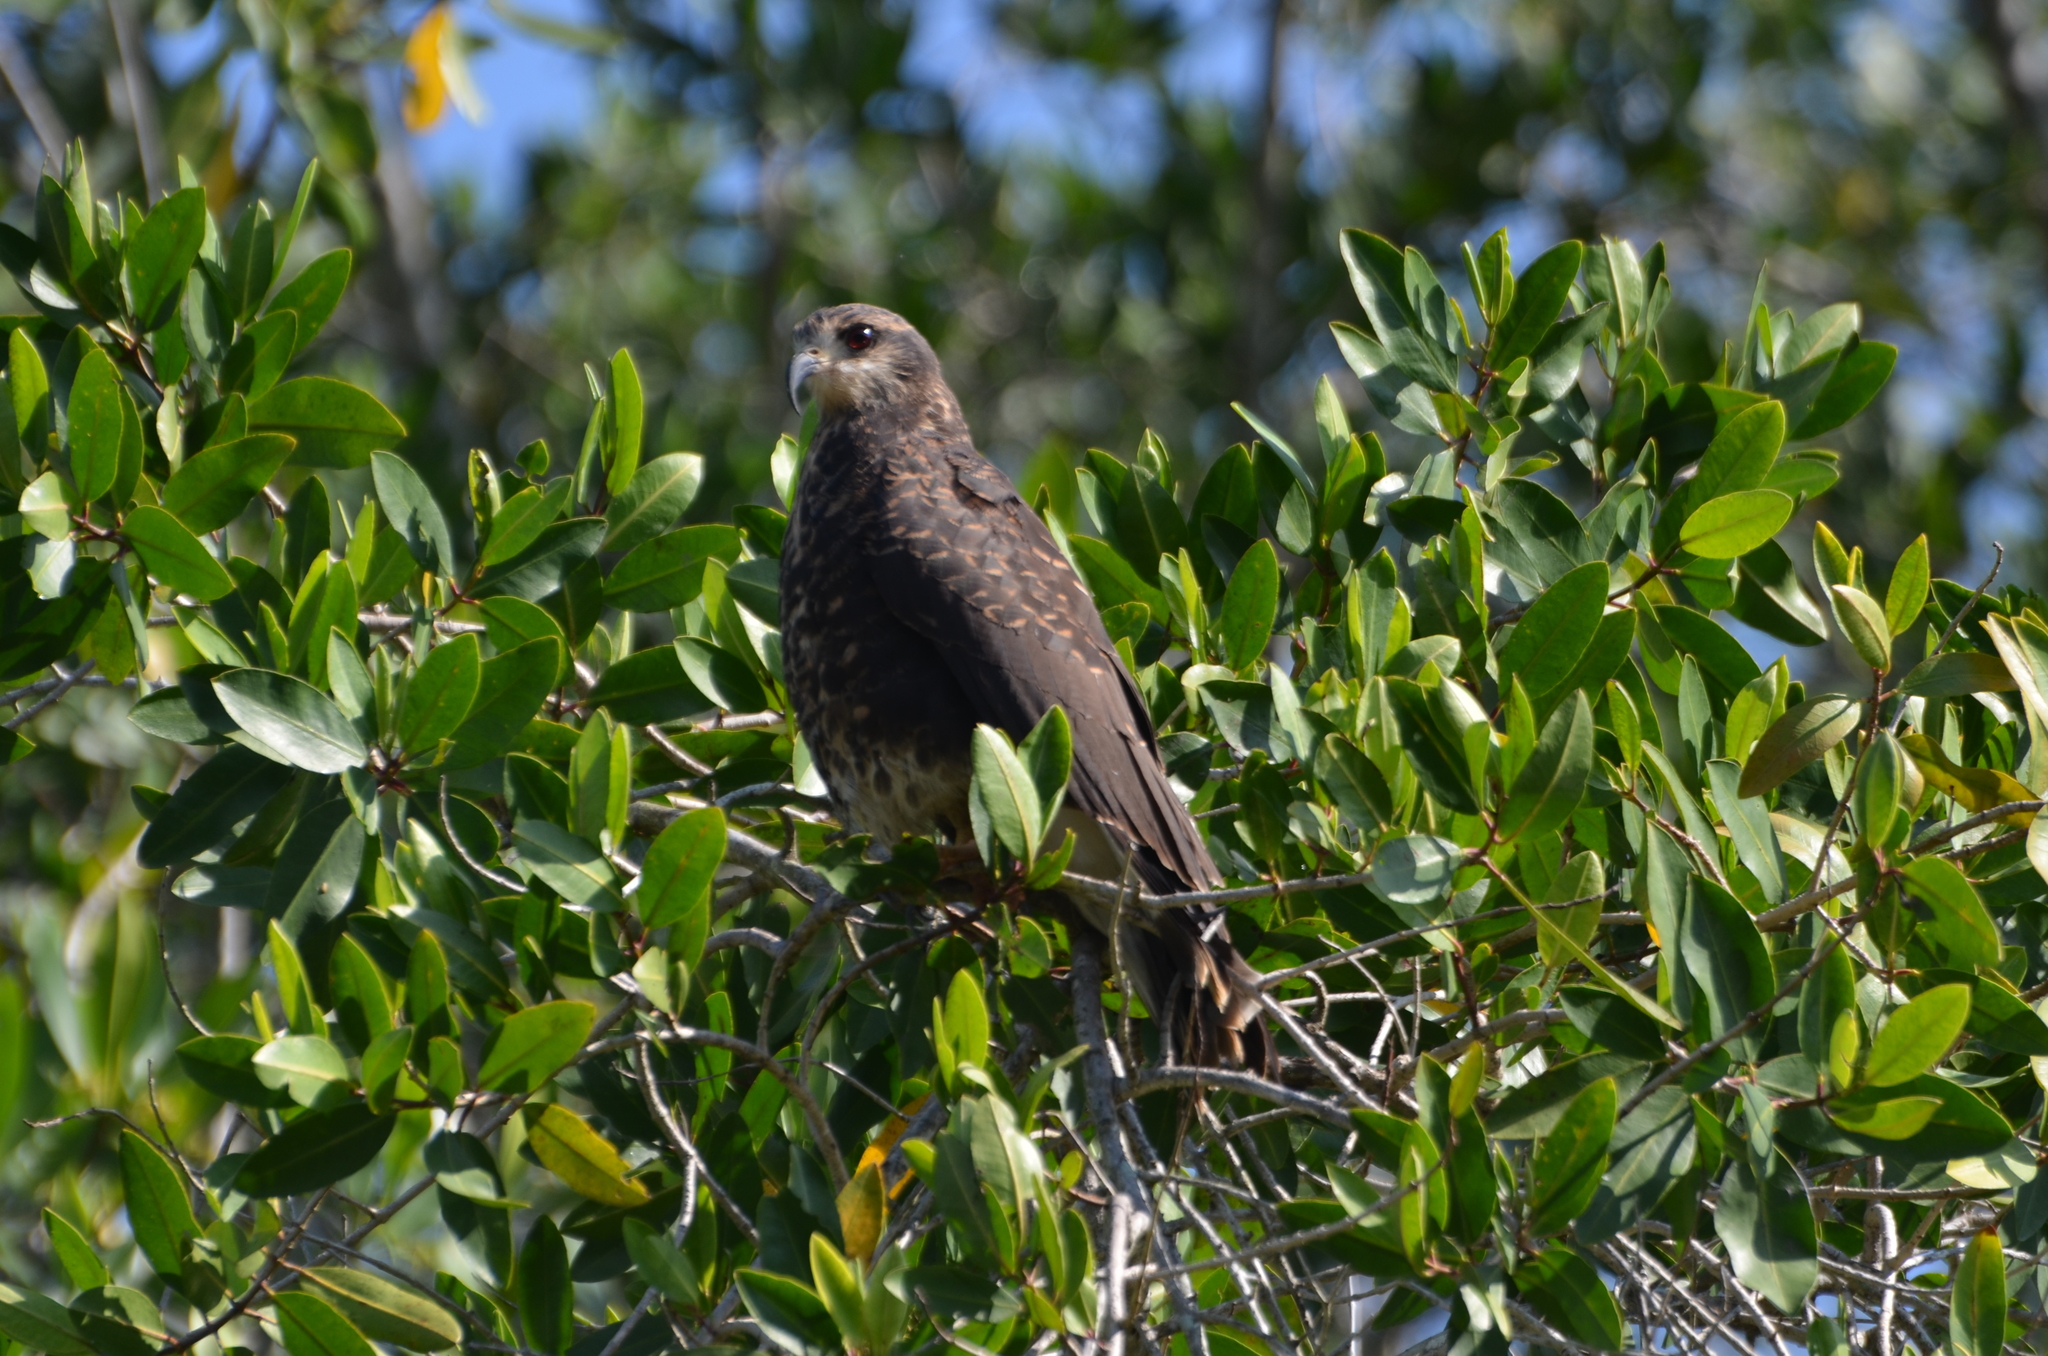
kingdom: Animalia
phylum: Chordata
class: Aves
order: Accipitriformes
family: Accipitridae
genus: Rostrhamus
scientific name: Rostrhamus sociabilis
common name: Snail kite
